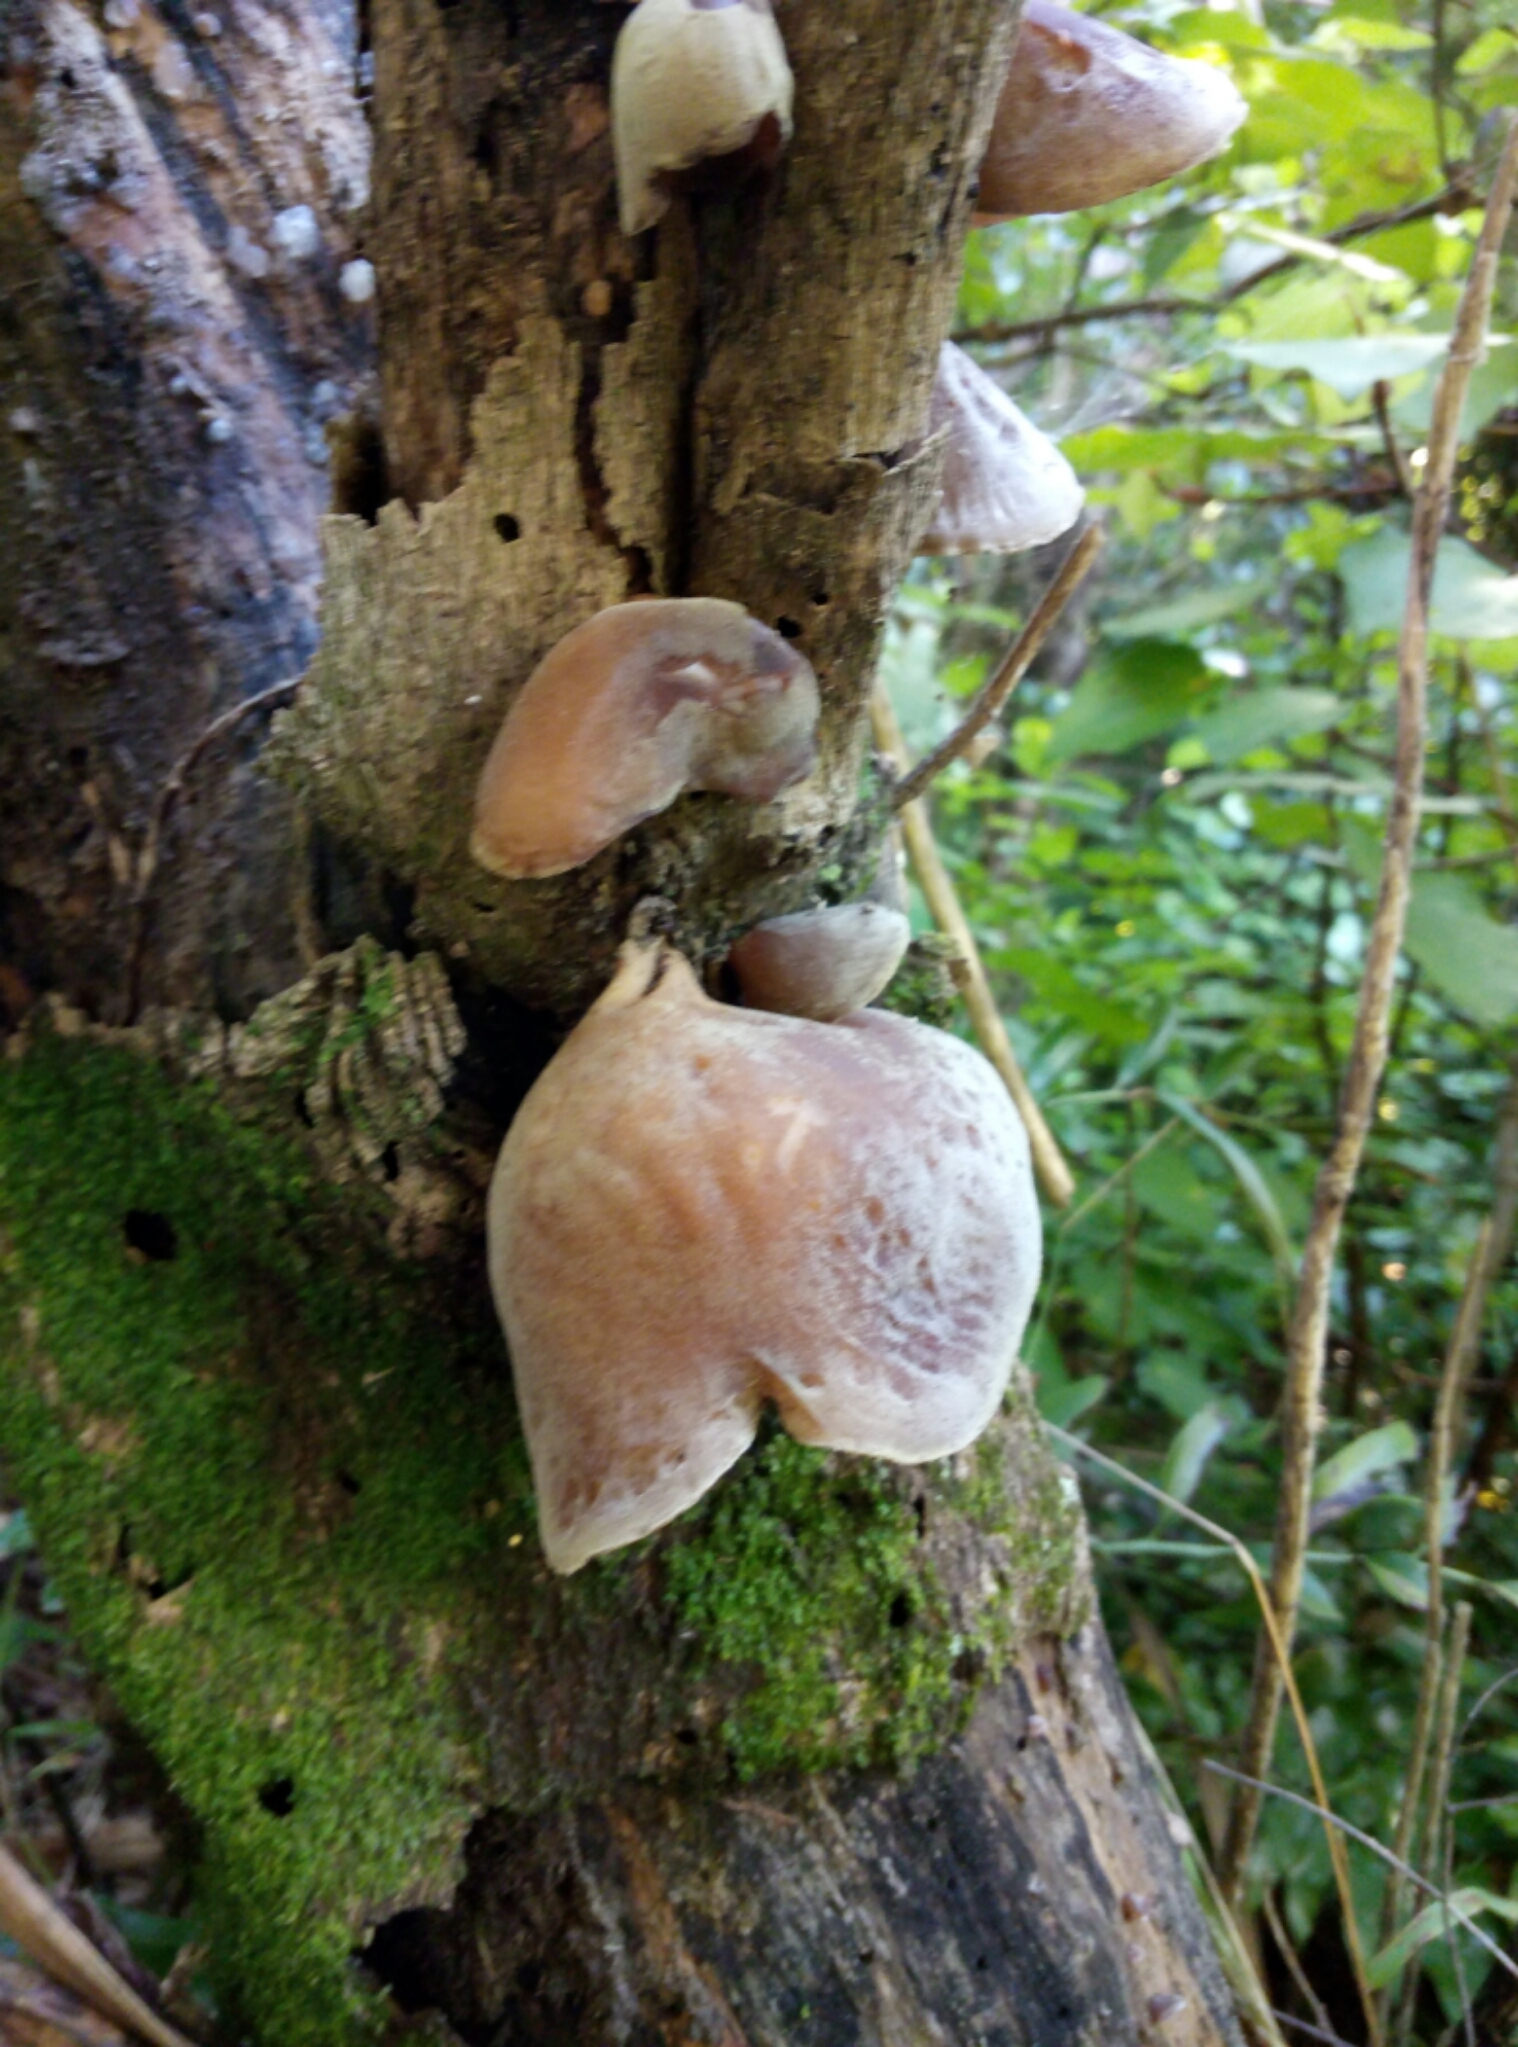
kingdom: Fungi
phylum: Basidiomycota
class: Agaricomycetes
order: Auriculariales
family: Auriculariaceae
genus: Auricularia
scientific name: Auricularia cornea
